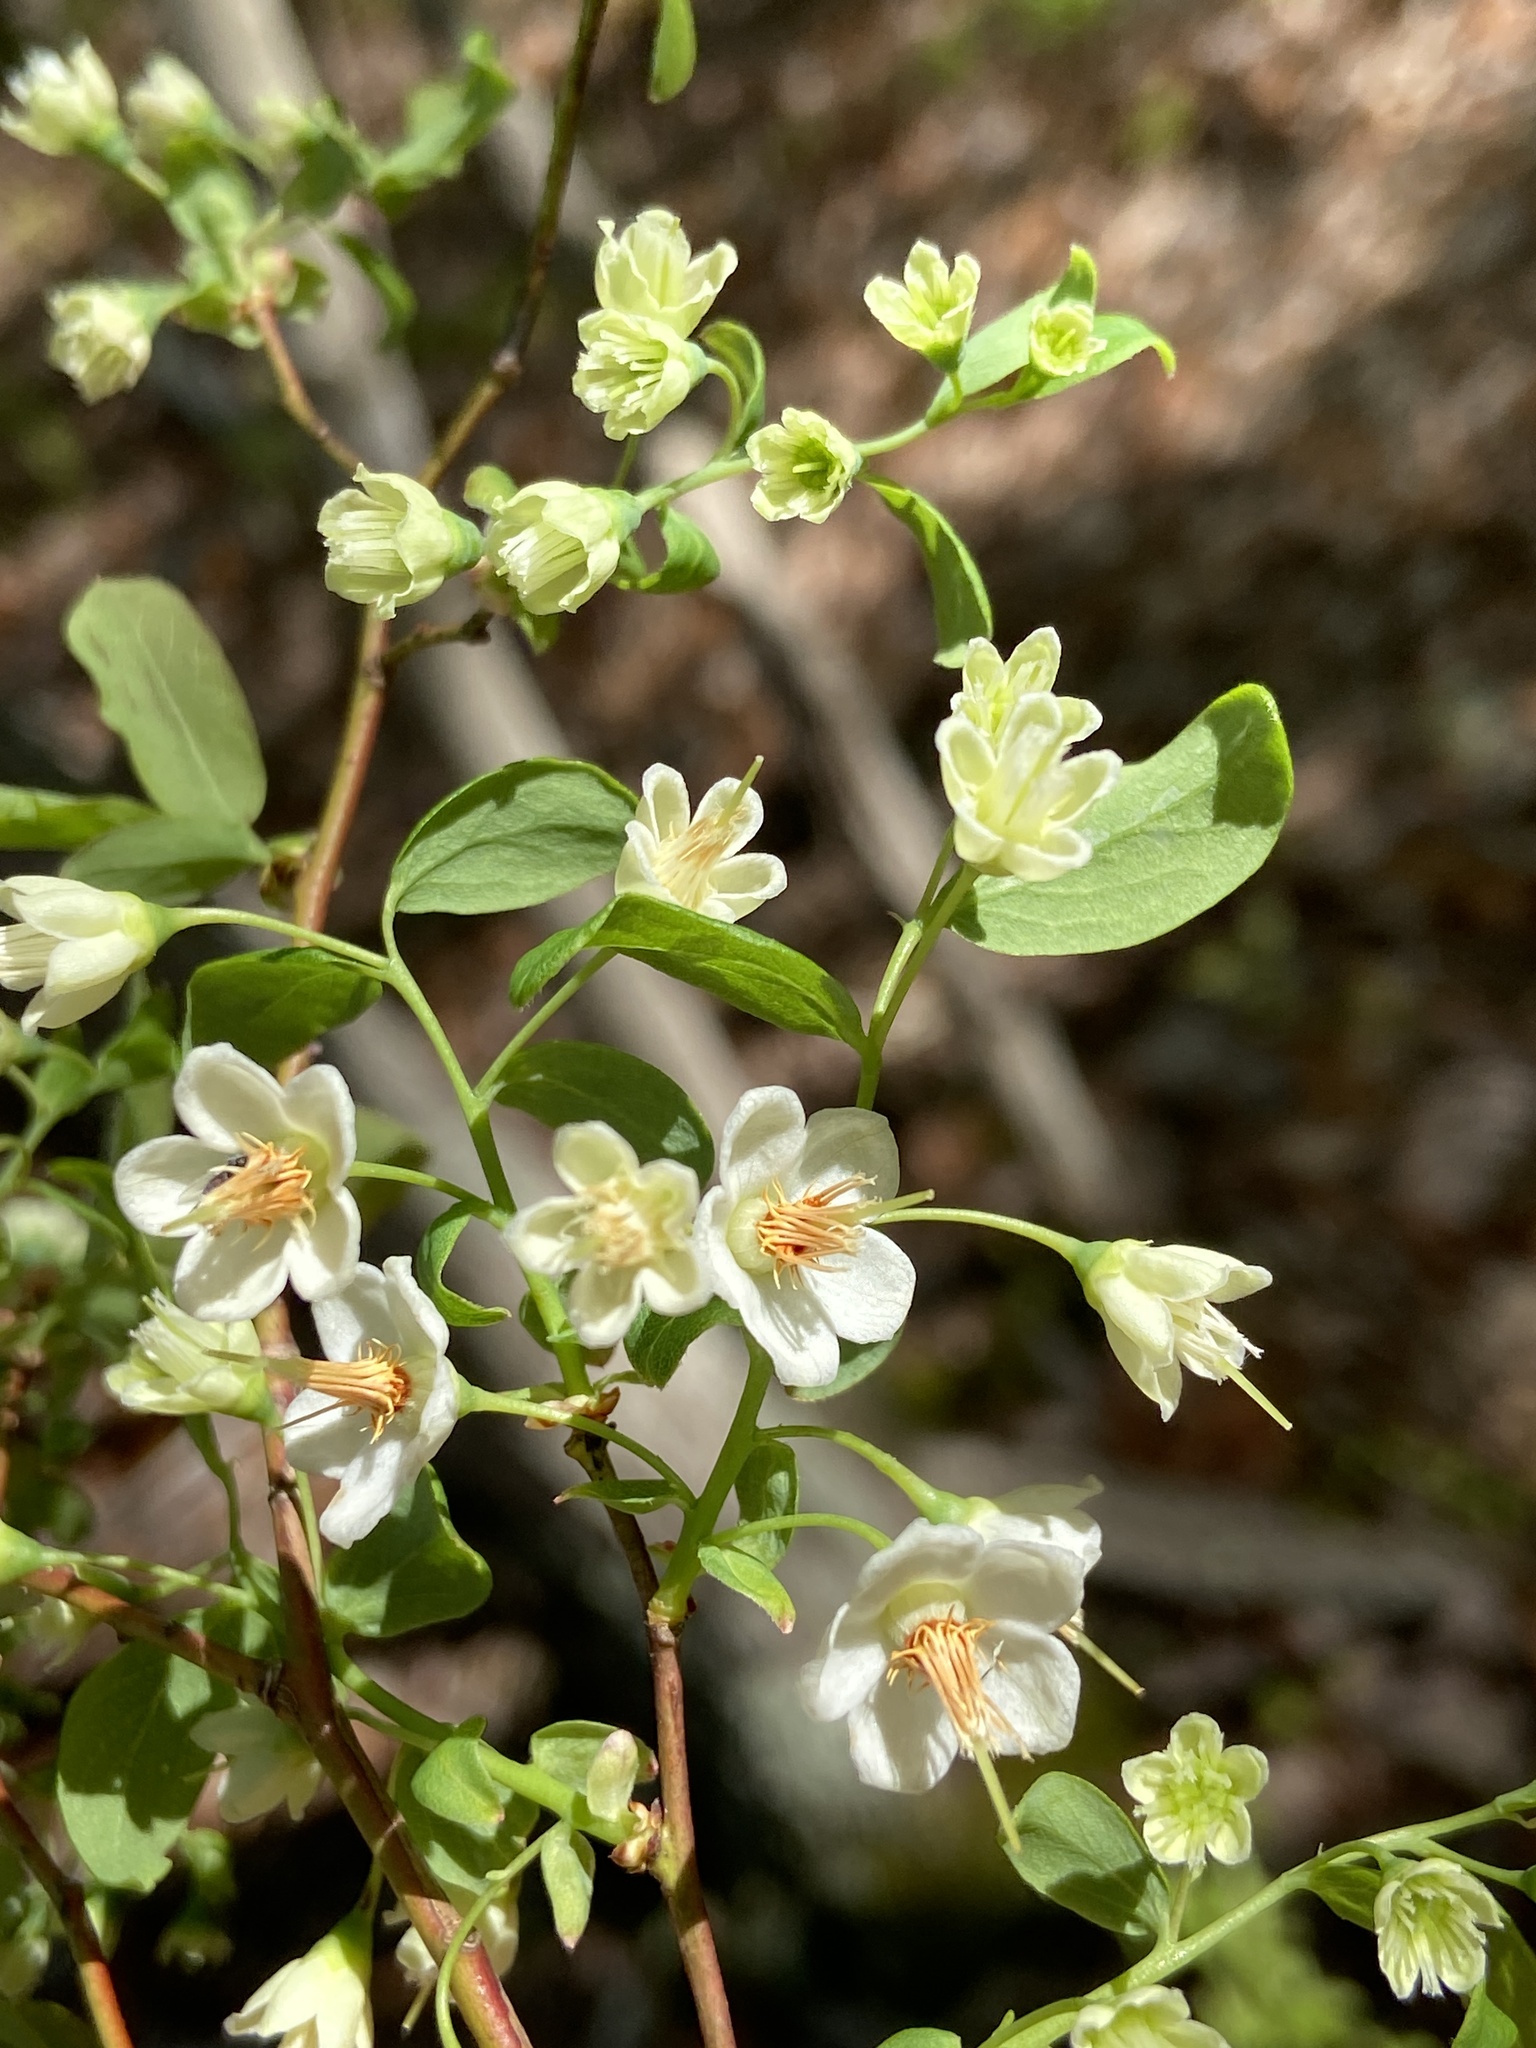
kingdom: Plantae
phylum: Tracheophyta
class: Magnoliopsida
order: Ericales
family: Ericaceae
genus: Vaccinium
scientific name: Vaccinium stamineum
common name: Deerberry
